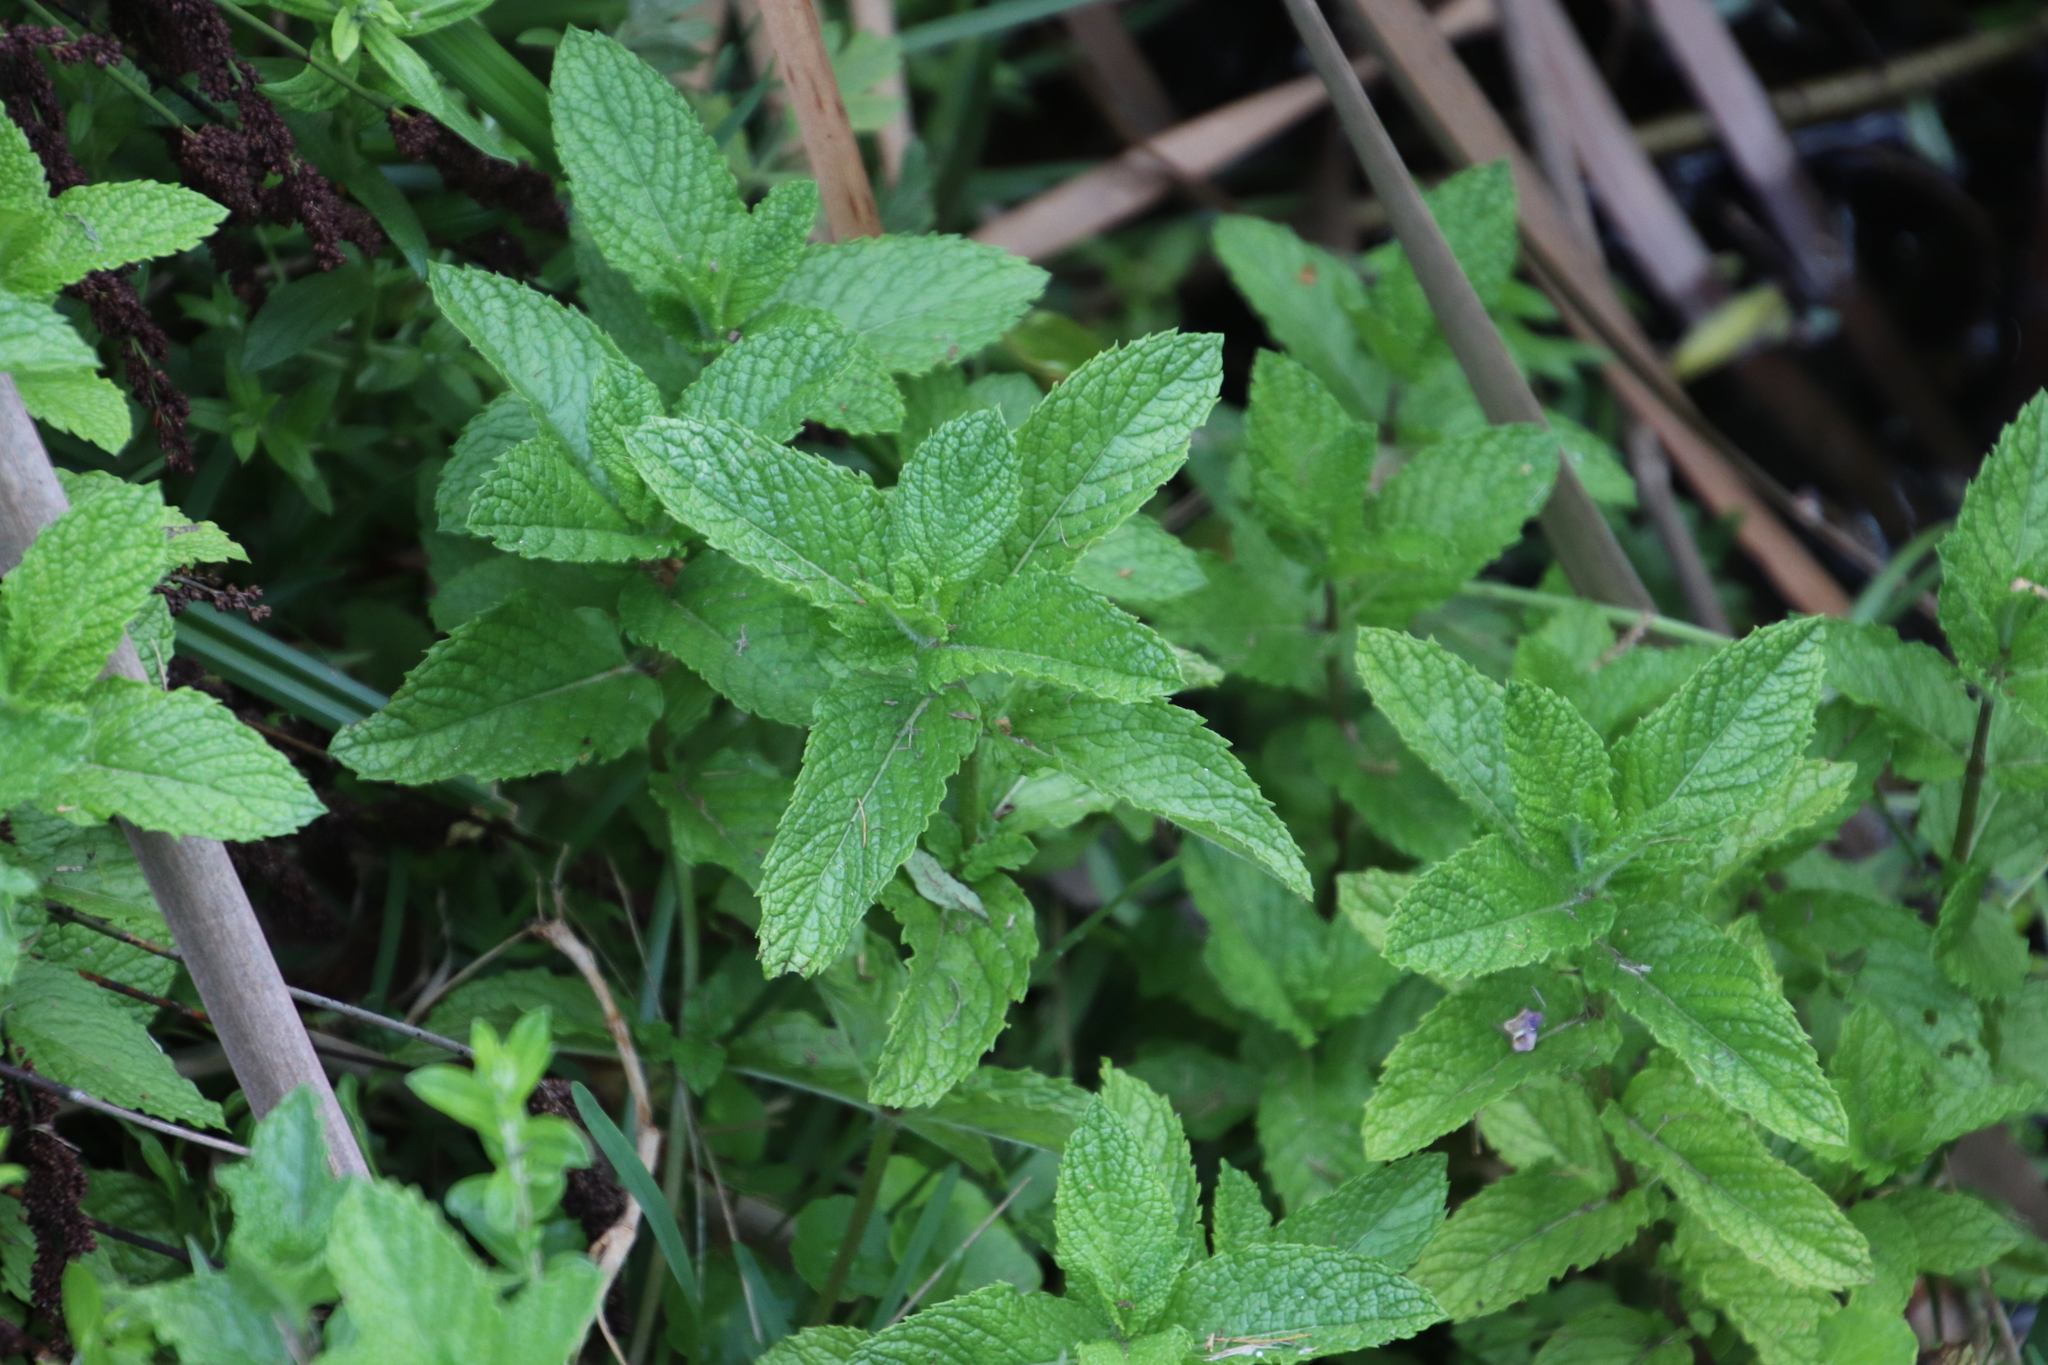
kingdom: Plantae
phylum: Tracheophyta
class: Magnoliopsida
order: Lamiales
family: Lamiaceae
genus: Mentha
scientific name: Mentha spicata
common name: Spearmint
